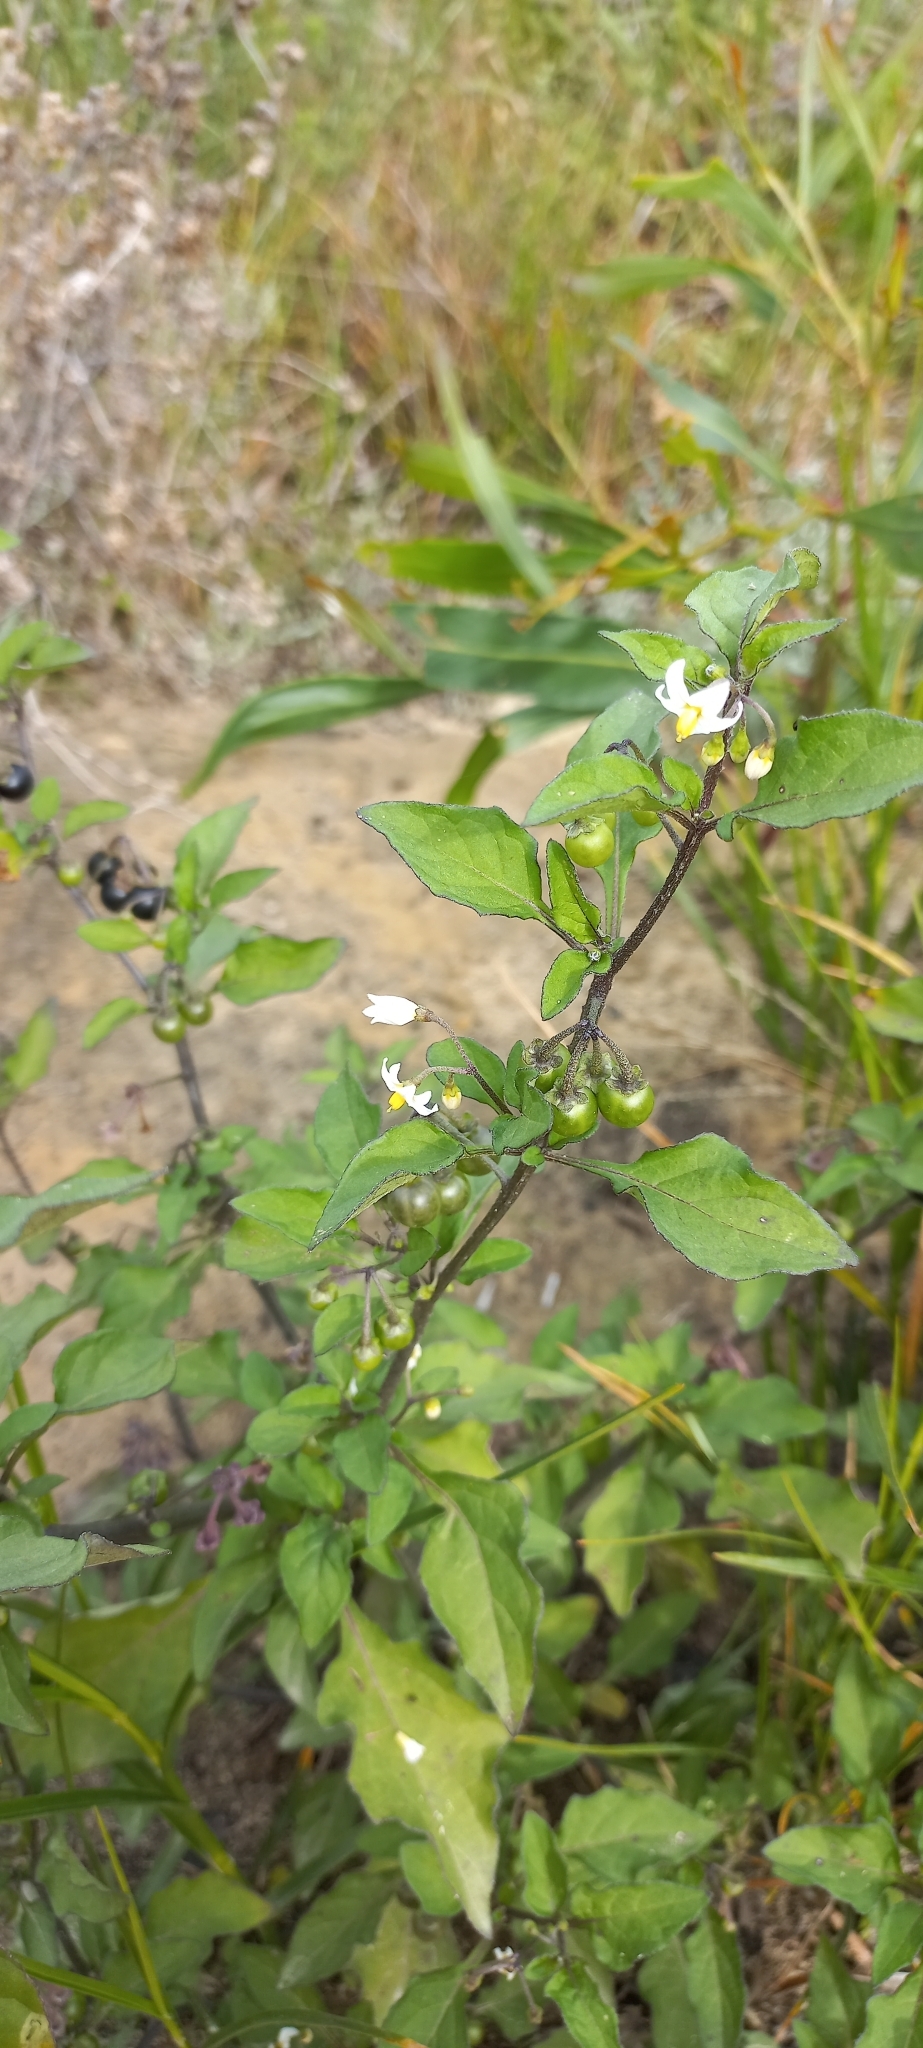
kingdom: Plantae
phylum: Tracheophyta
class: Magnoliopsida
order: Solanales
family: Solanaceae
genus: Solanum
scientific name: Solanum nigrum
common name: Black nightshade
